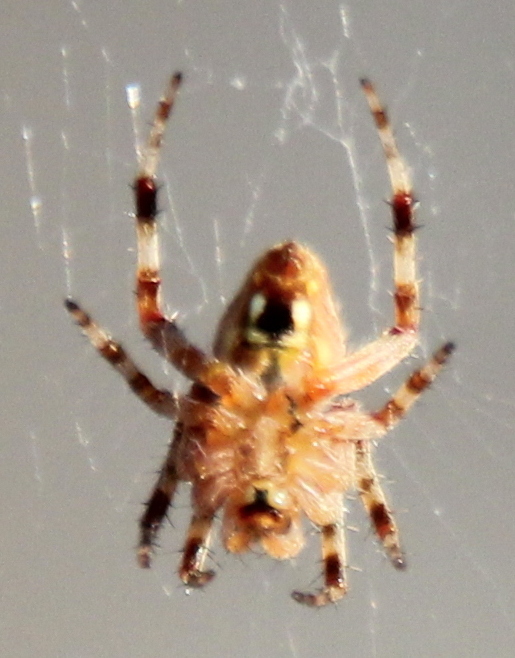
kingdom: Animalia
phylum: Arthropoda
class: Arachnida
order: Araneae
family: Araneidae
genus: Neoscona
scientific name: Neoscona crucifera
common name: Spotted orbweaver
